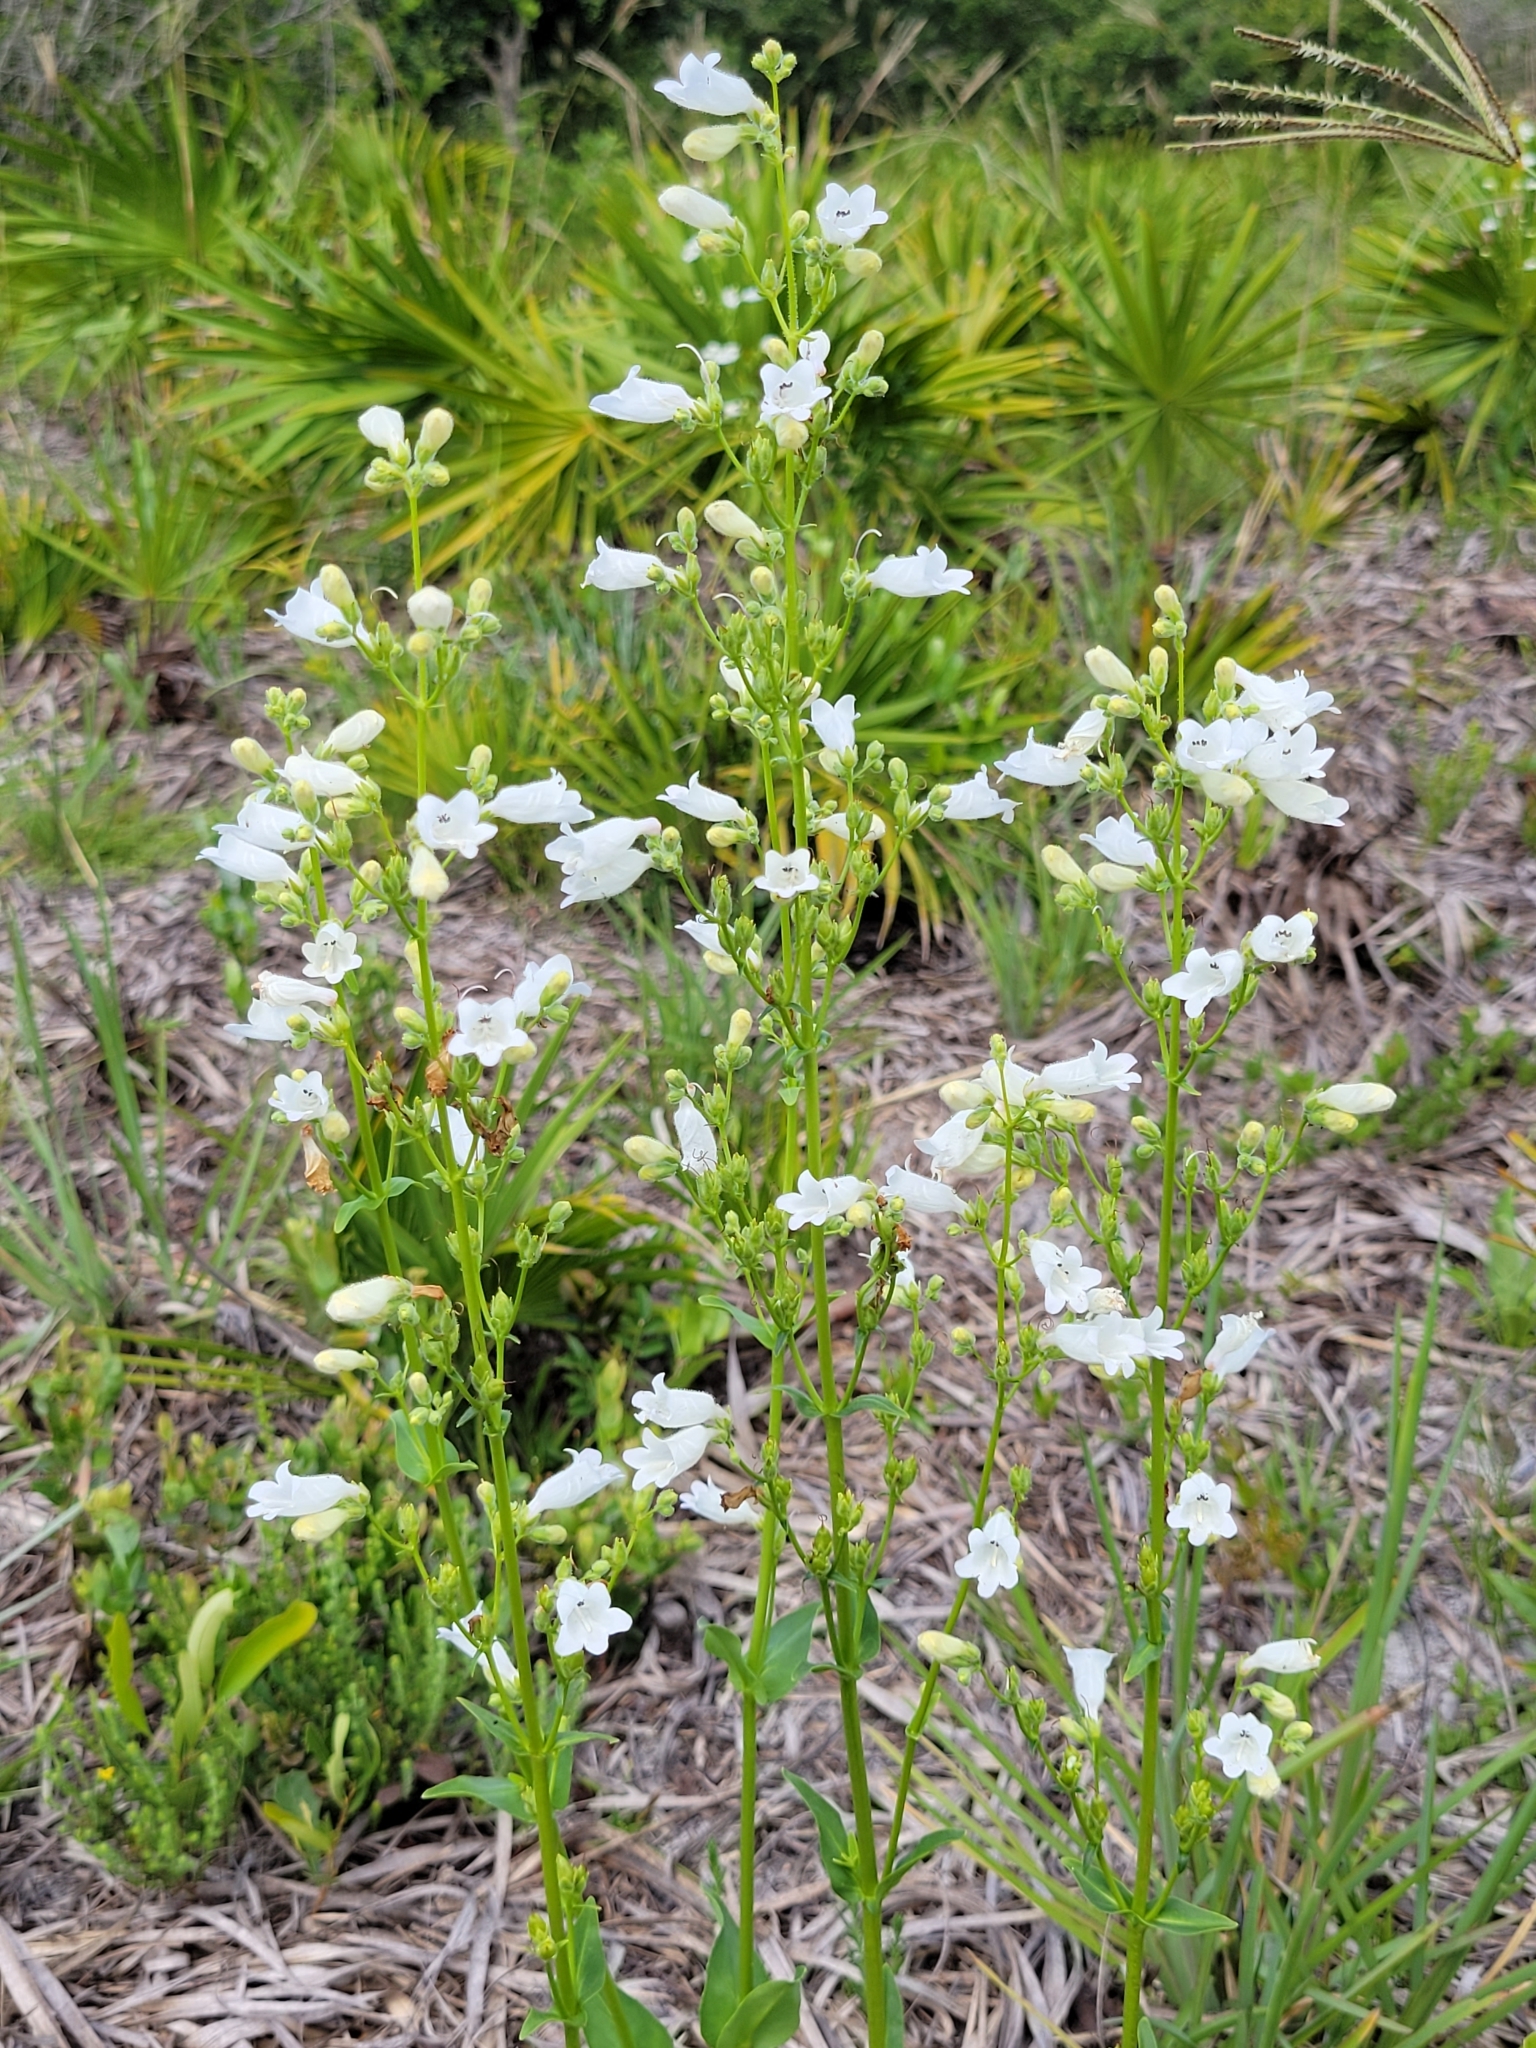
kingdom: Plantae
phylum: Tracheophyta
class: Magnoliopsida
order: Lamiales
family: Plantaginaceae
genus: Penstemon
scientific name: Penstemon multiflorus
